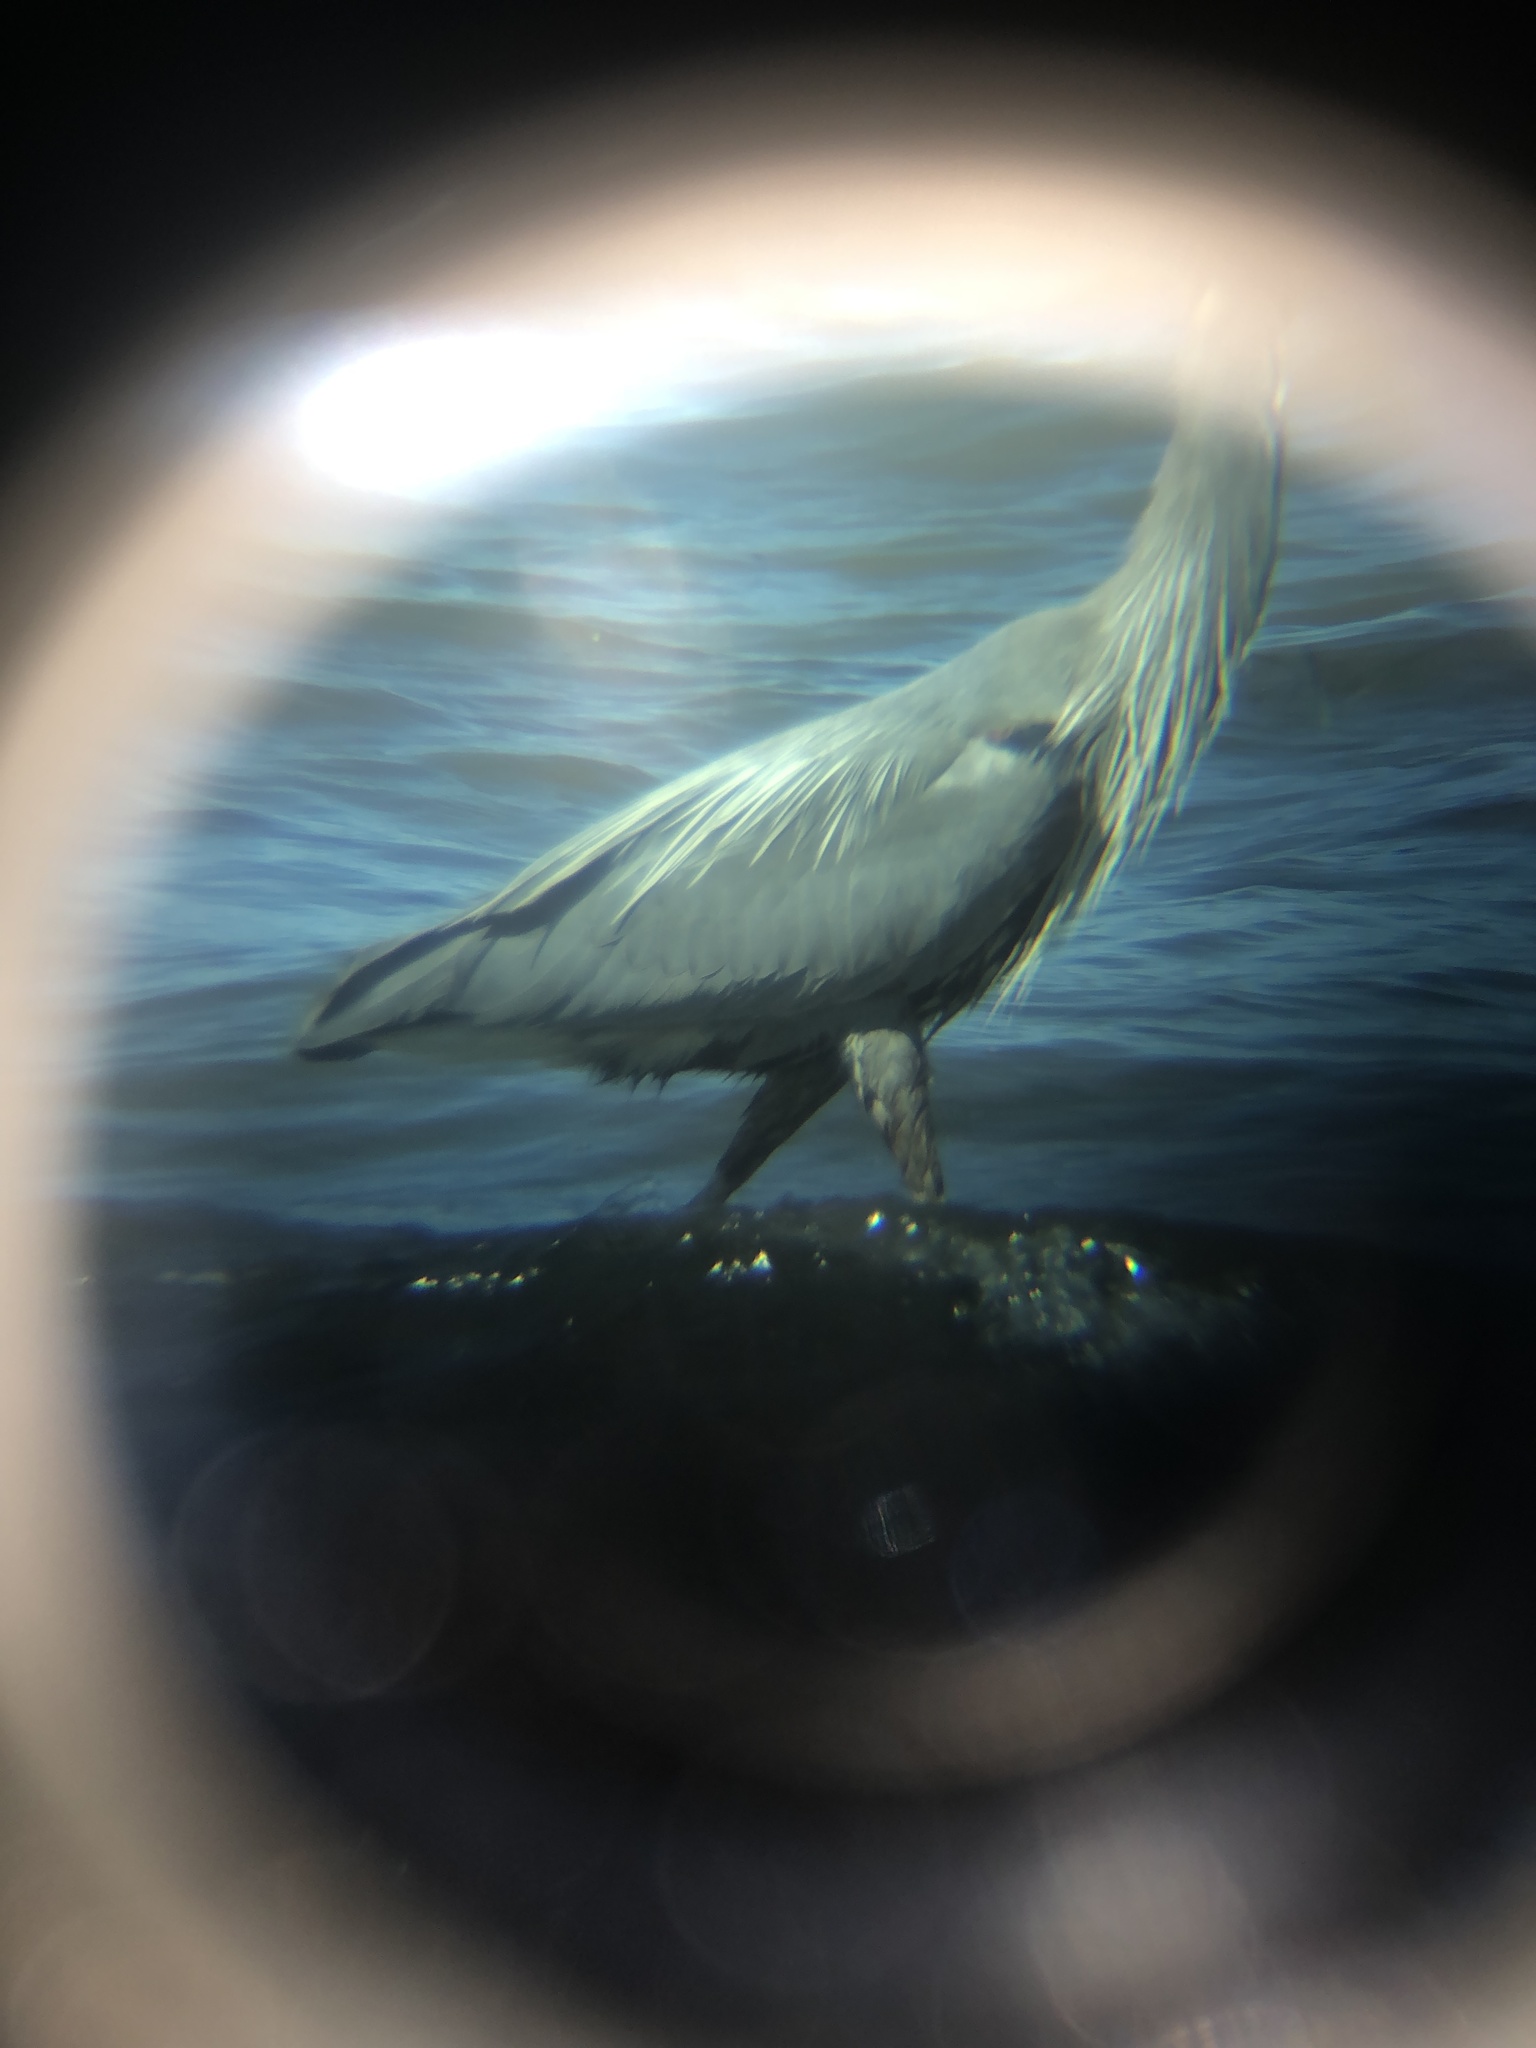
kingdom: Animalia
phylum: Chordata
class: Aves
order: Pelecaniformes
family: Ardeidae
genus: Ardea
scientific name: Ardea herodias
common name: Great blue heron
